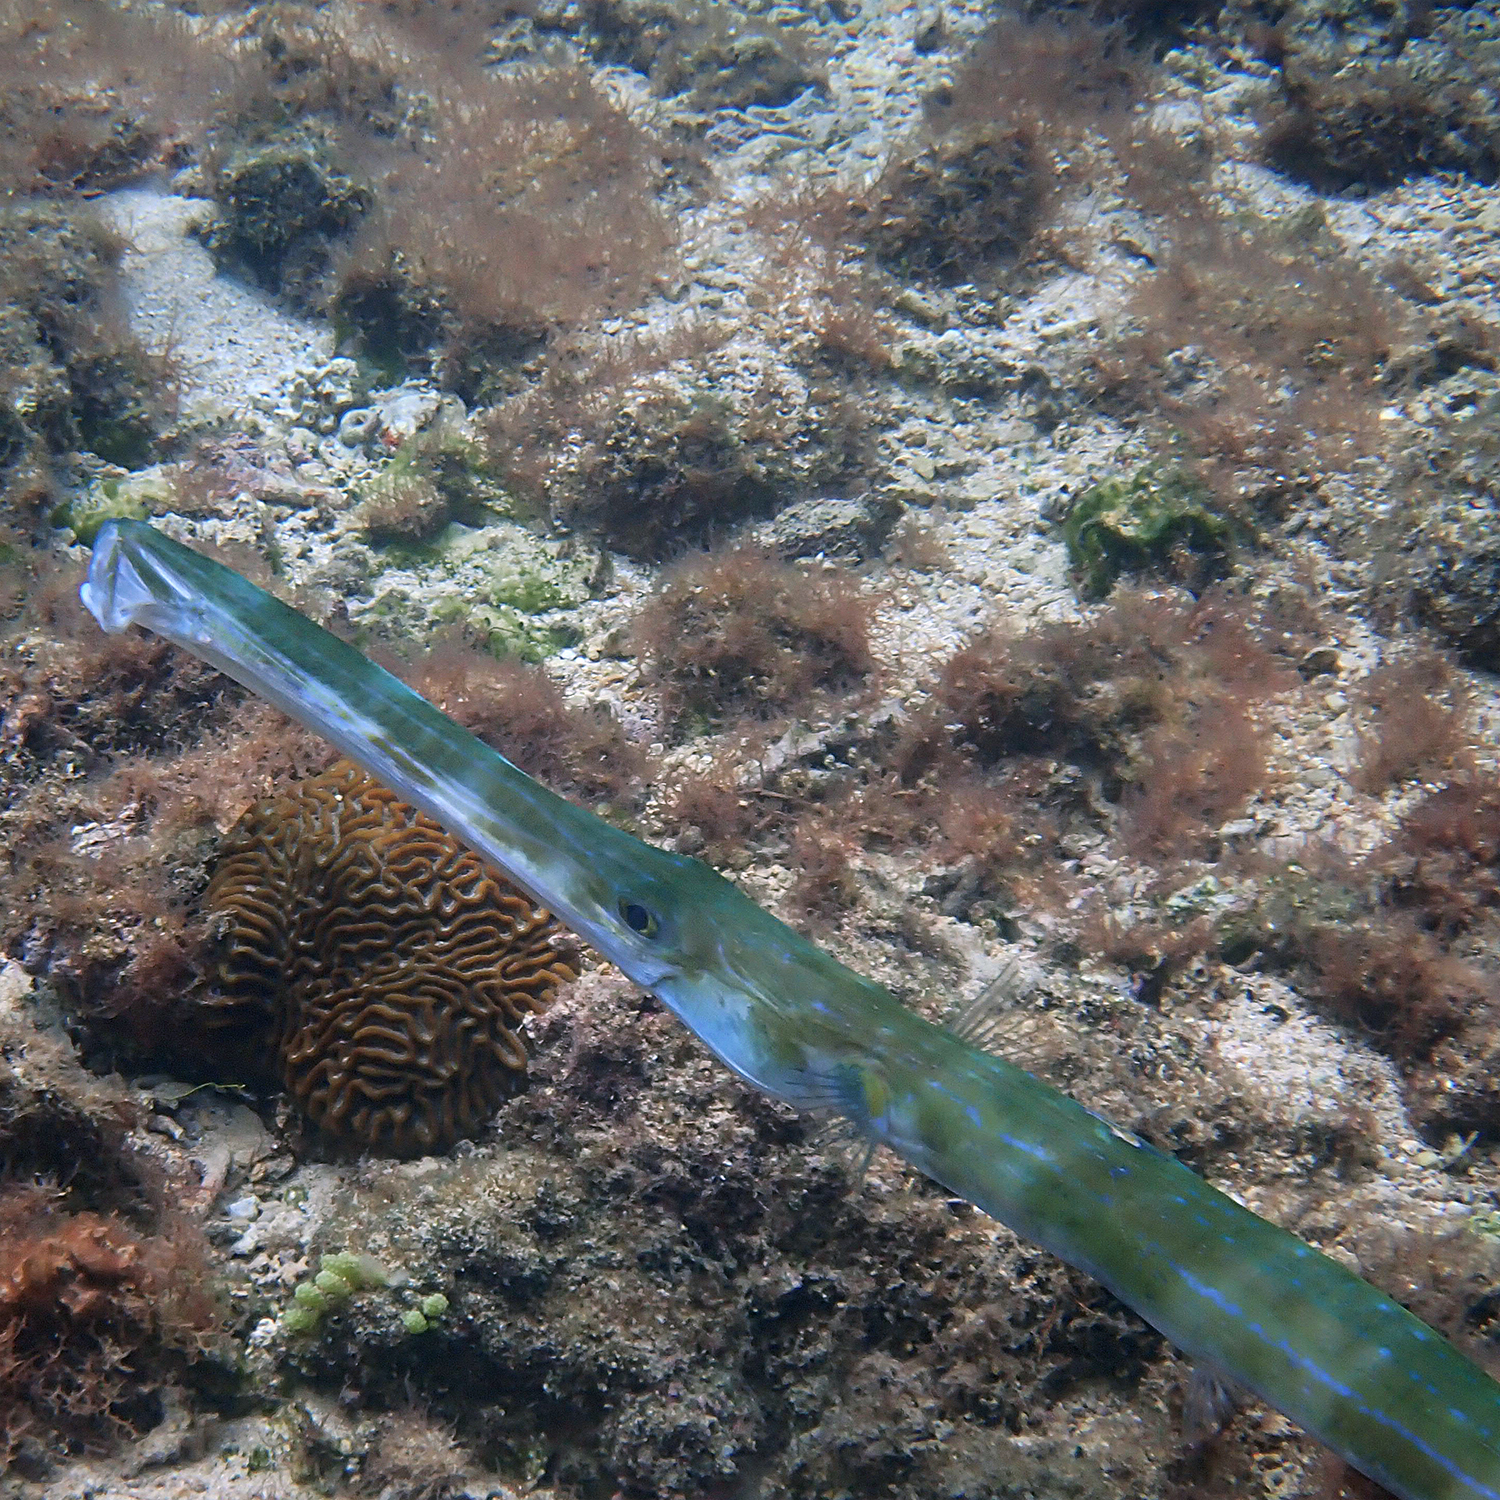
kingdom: Animalia
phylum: Chordata
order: Syngnathiformes
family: Fistulariidae
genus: Fistularia
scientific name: Fistularia commersonii
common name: Bluespotted cornetfish
